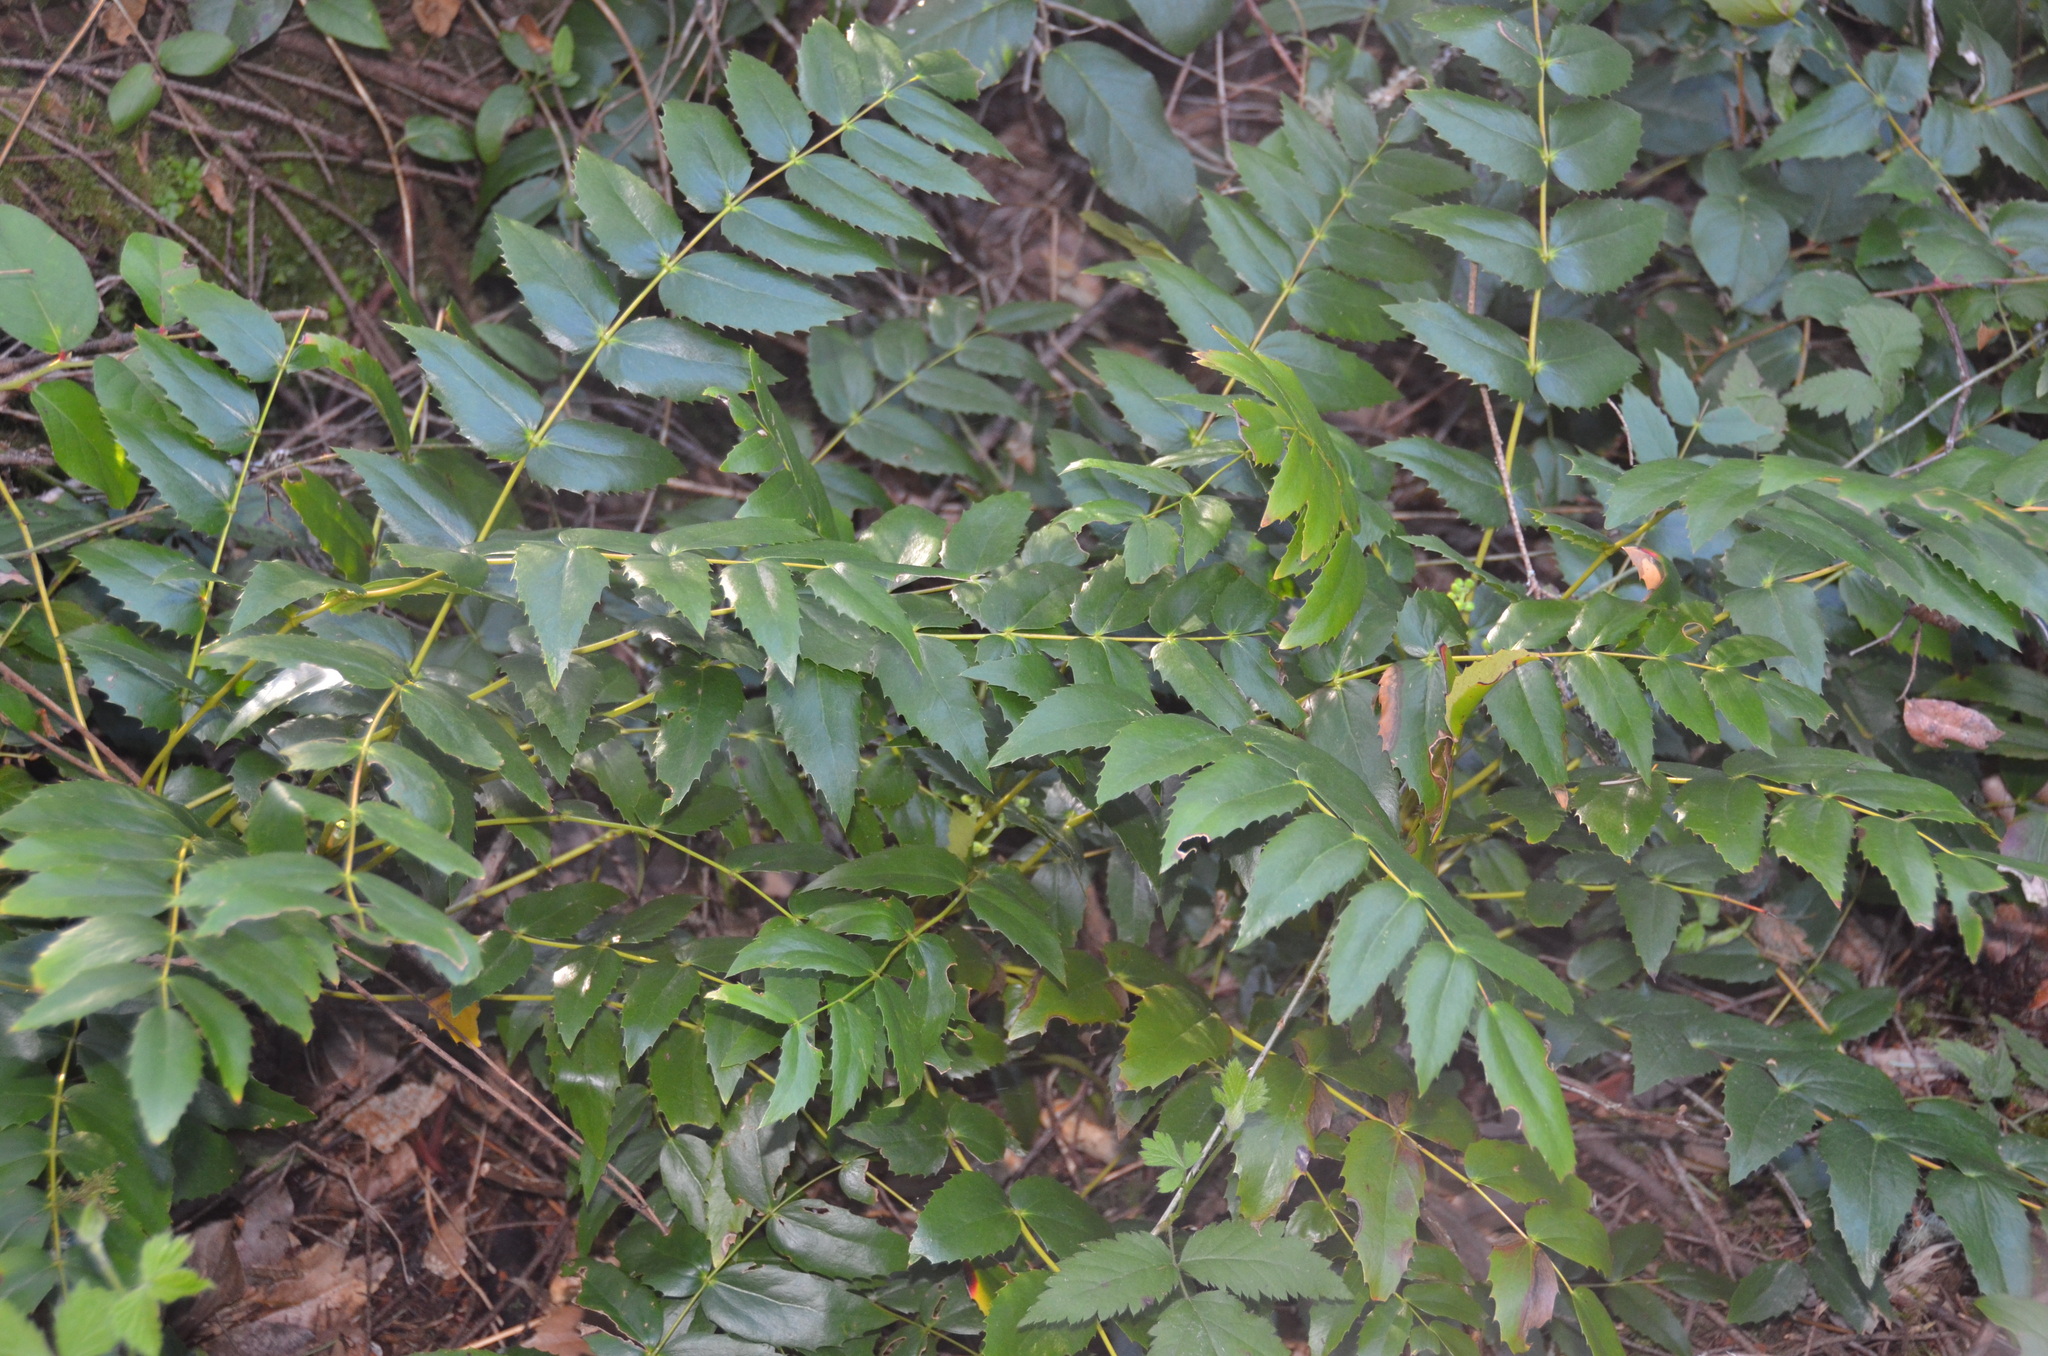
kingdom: Plantae
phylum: Tracheophyta
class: Magnoliopsida
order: Ranunculales
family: Berberidaceae
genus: Mahonia
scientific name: Mahonia nervosa
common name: Cascade oregon-grape
